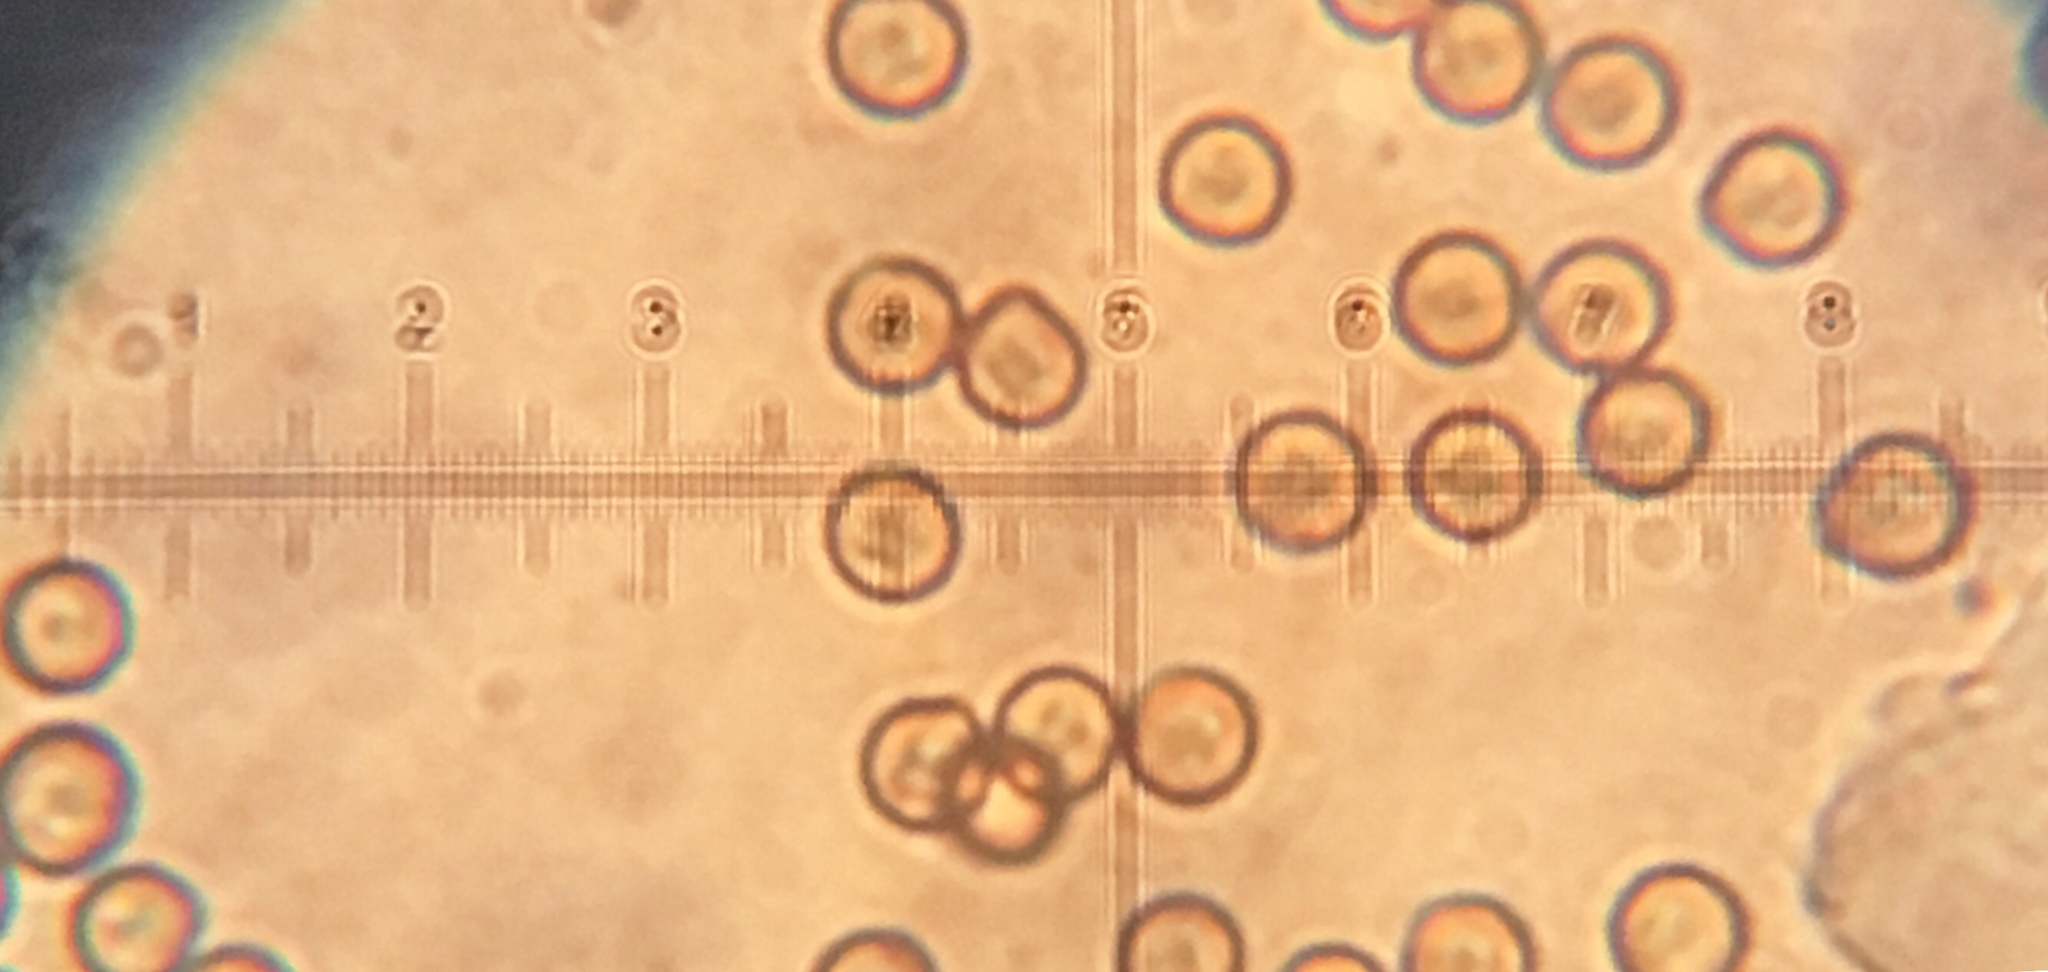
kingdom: Fungi
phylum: Basidiomycota
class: Agaricomycetes
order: Agaricales
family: Crepidotaceae
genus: Crepidotus
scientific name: Crepidotus applanatus
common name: Flat crep
